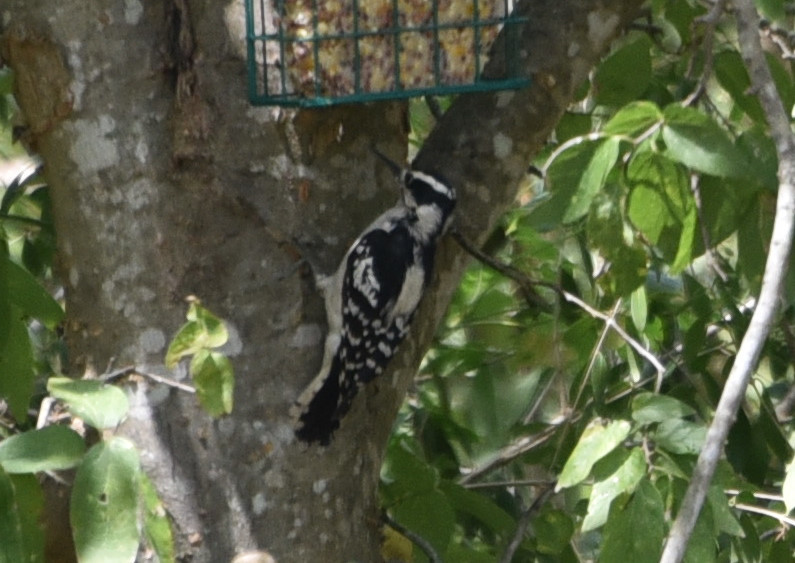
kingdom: Animalia
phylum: Chordata
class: Aves
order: Piciformes
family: Picidae
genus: Dryobates
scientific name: Dryobates pubescens
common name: Downy woodpecker
